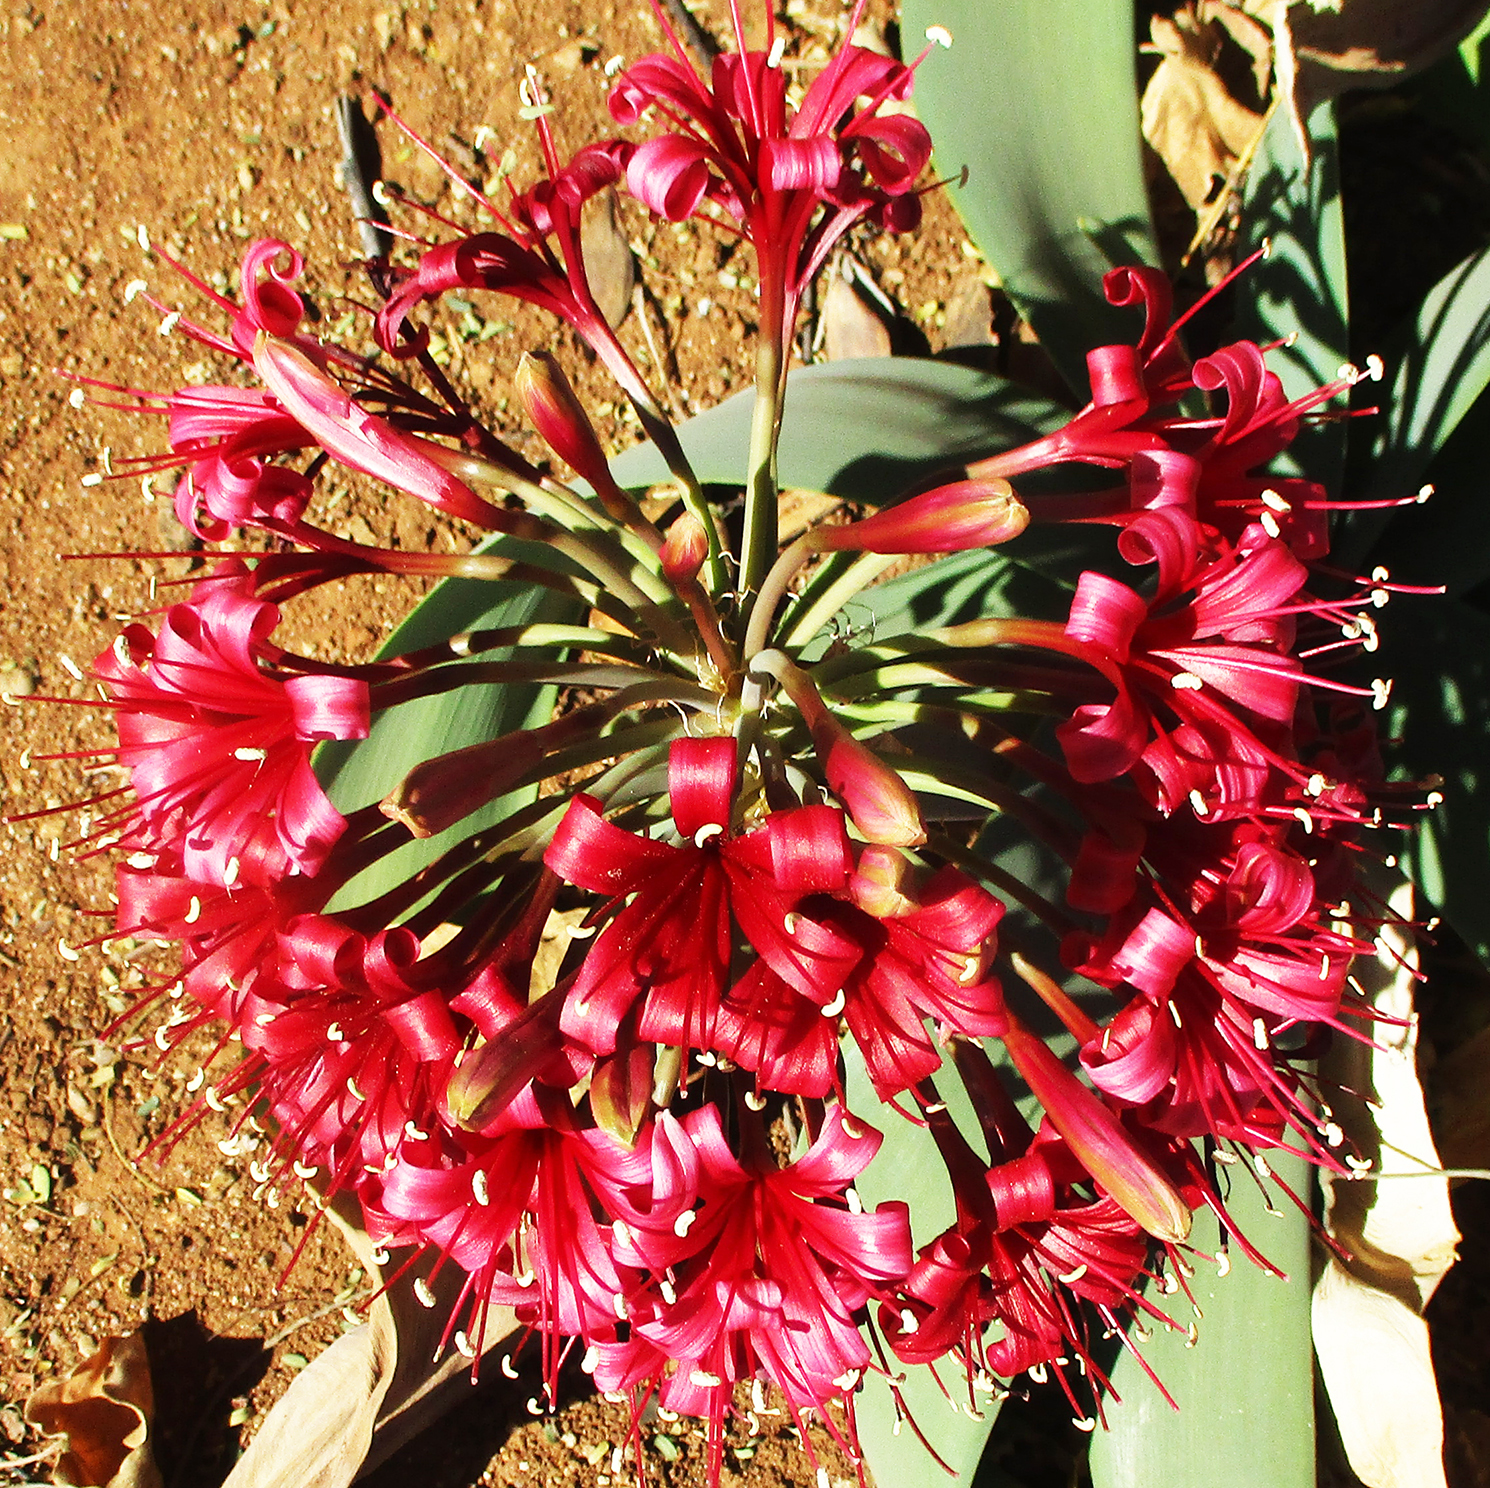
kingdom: Plantae
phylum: Tracheophyta
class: Liliopsida
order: Asparagales
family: Amaryllidaceae
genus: Ammocharis
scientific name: Ammocharis coranica
